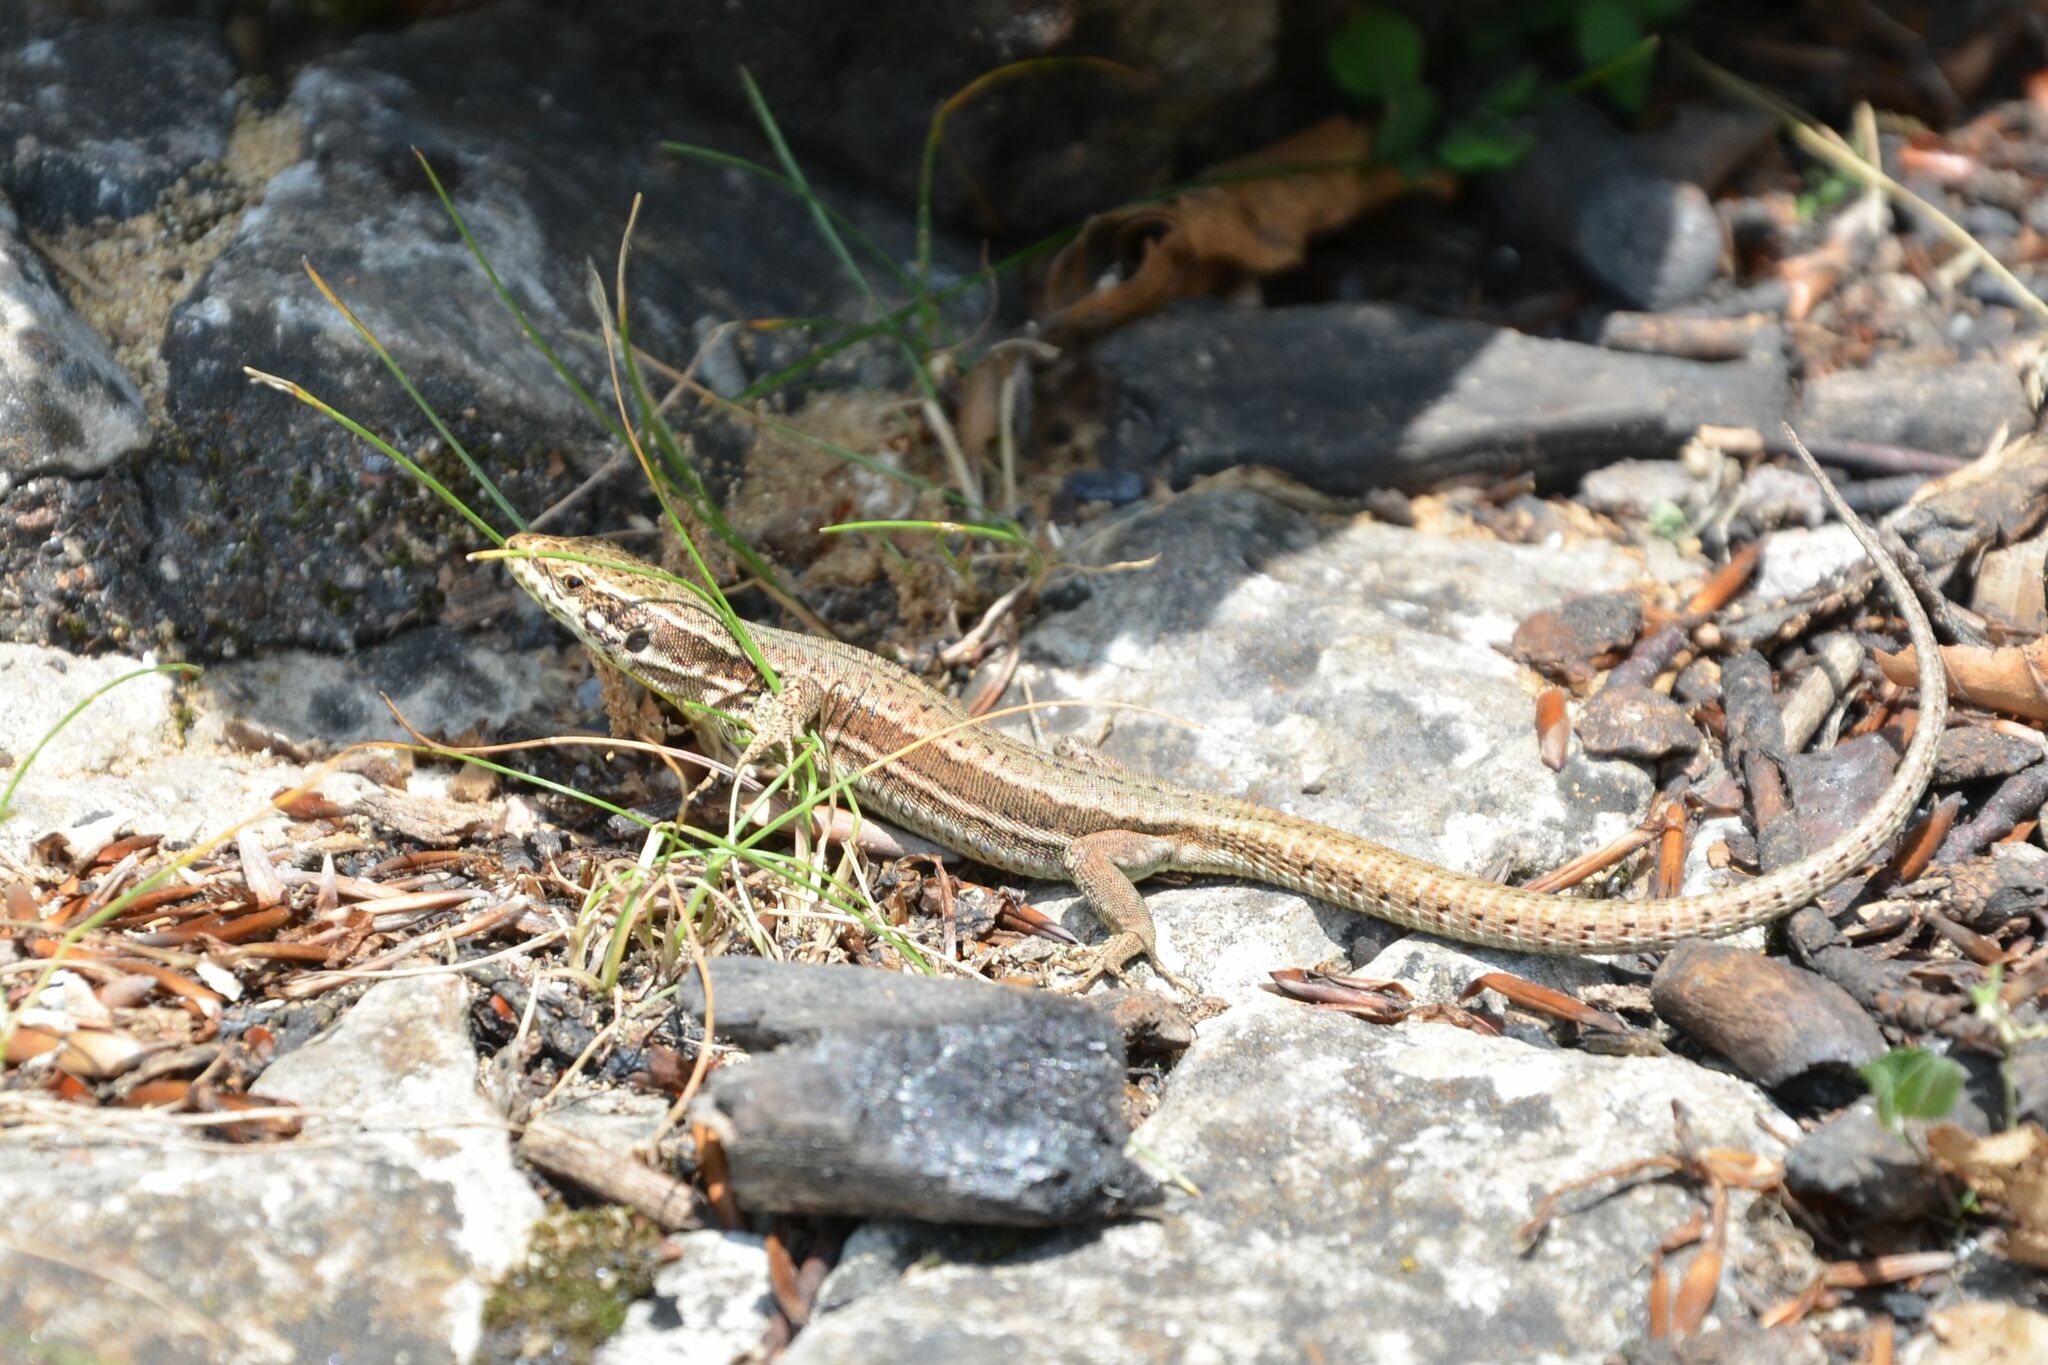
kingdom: Animalia
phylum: Chordata
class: Squamata
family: Lacertidae
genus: Podarcis
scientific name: Podarcis muralis
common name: Common wall lizard
